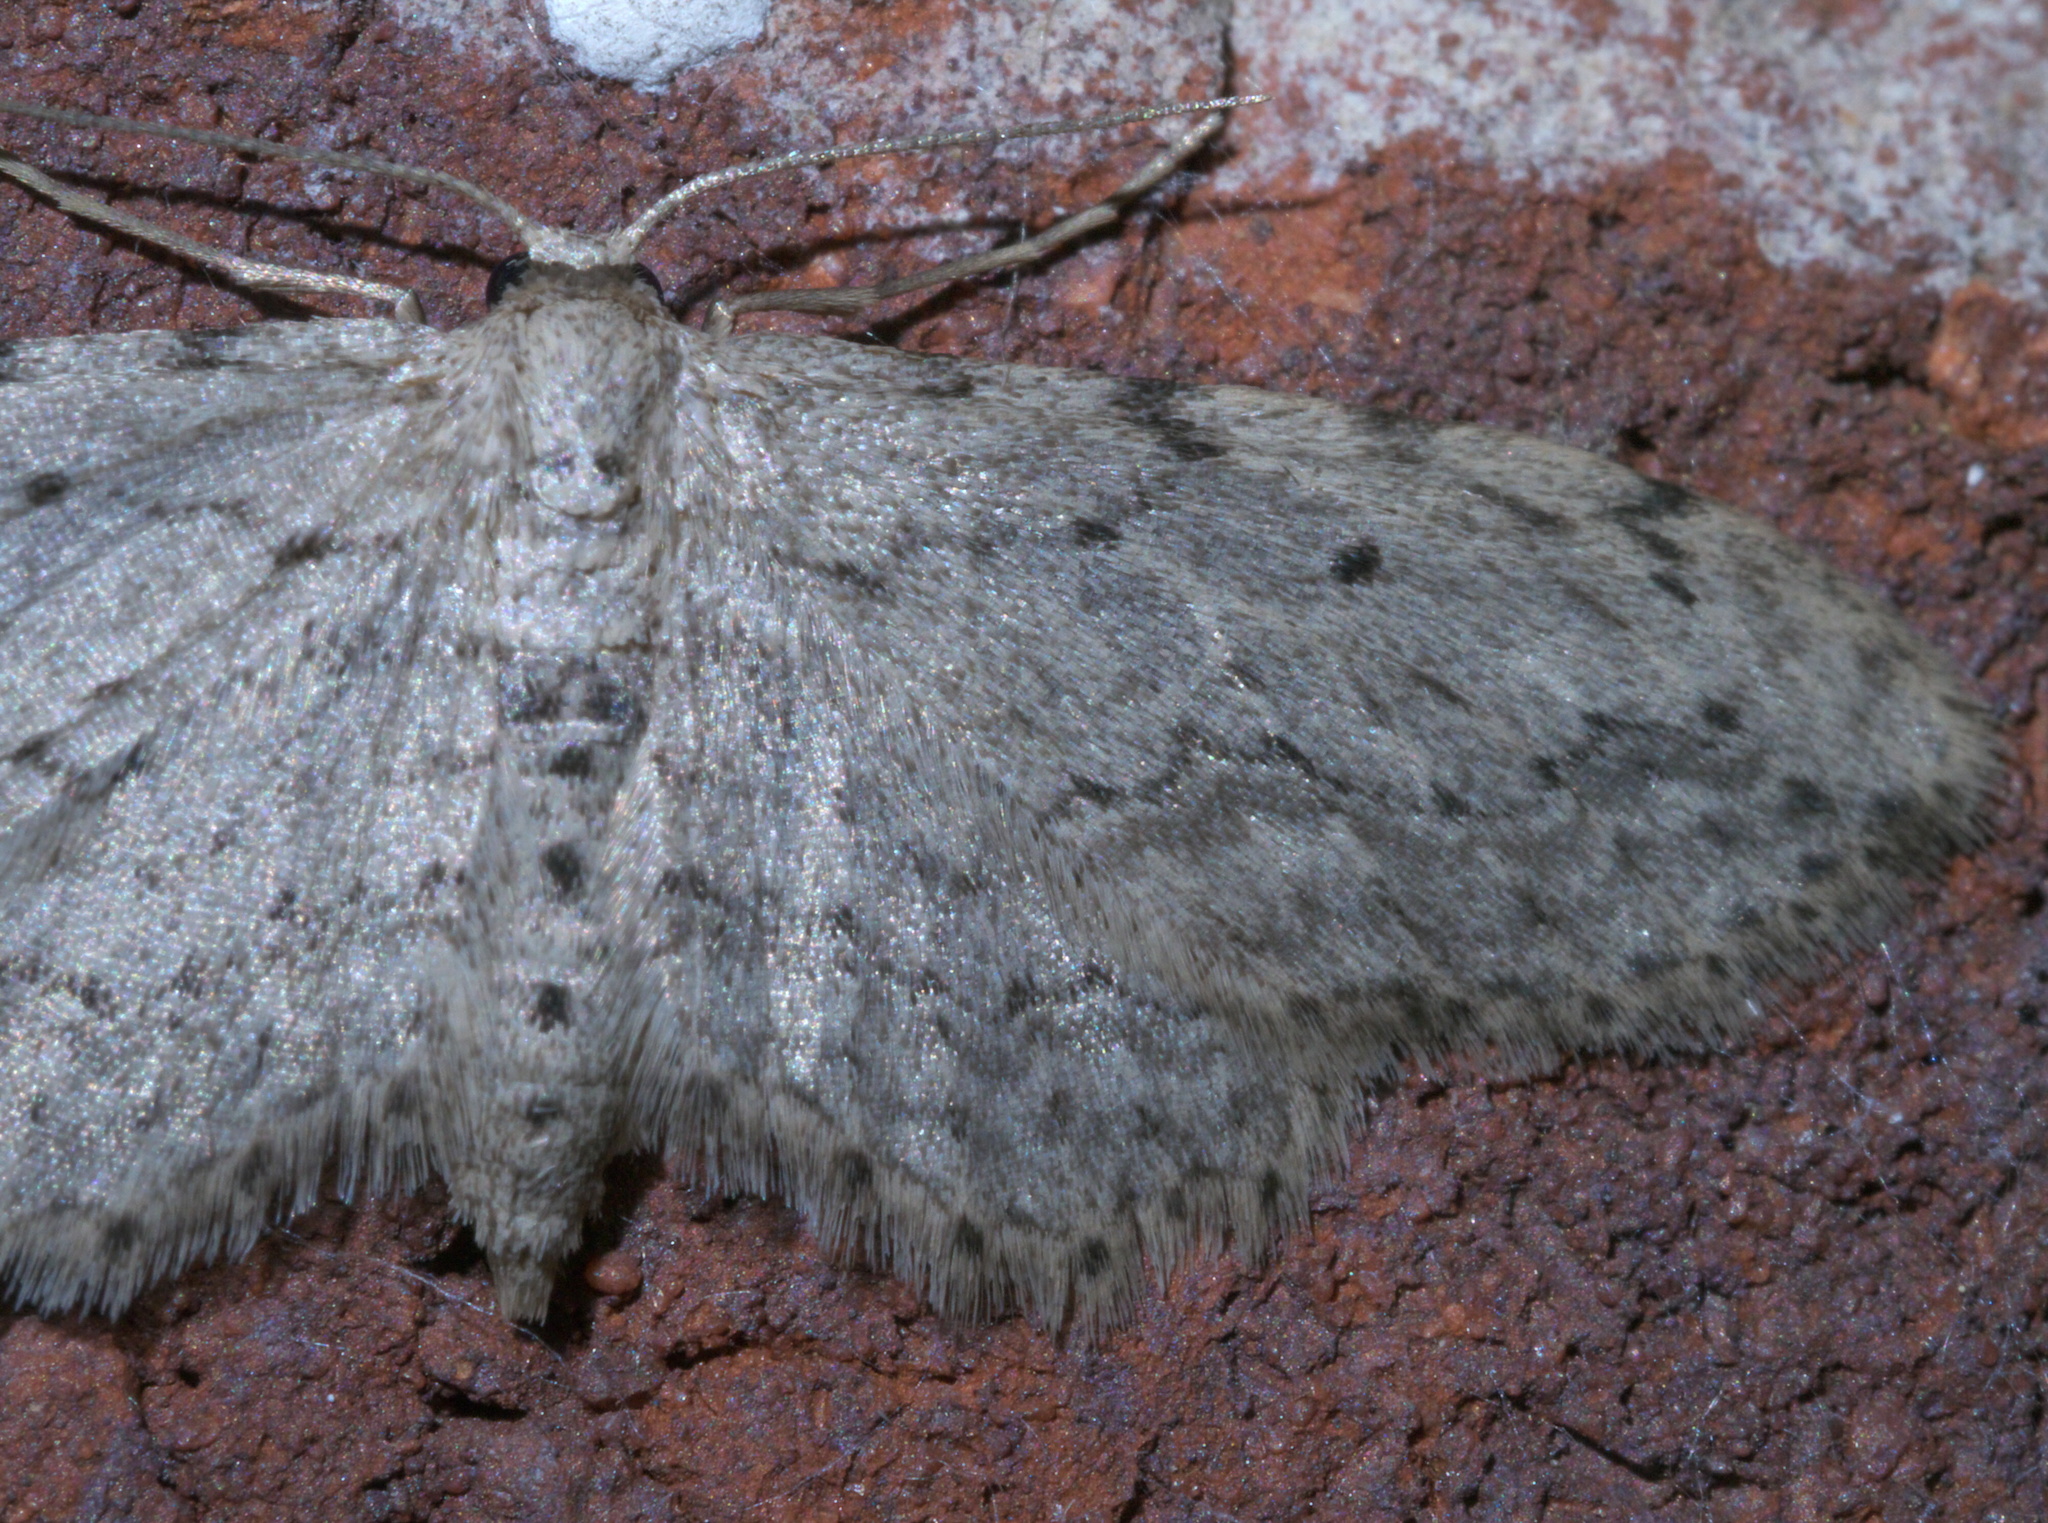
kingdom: Animalia
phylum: Arthropoda
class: Insecta
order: Lepidoptera
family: Geometridae
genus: Pimaphera
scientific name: Pimaphera sparsaria
